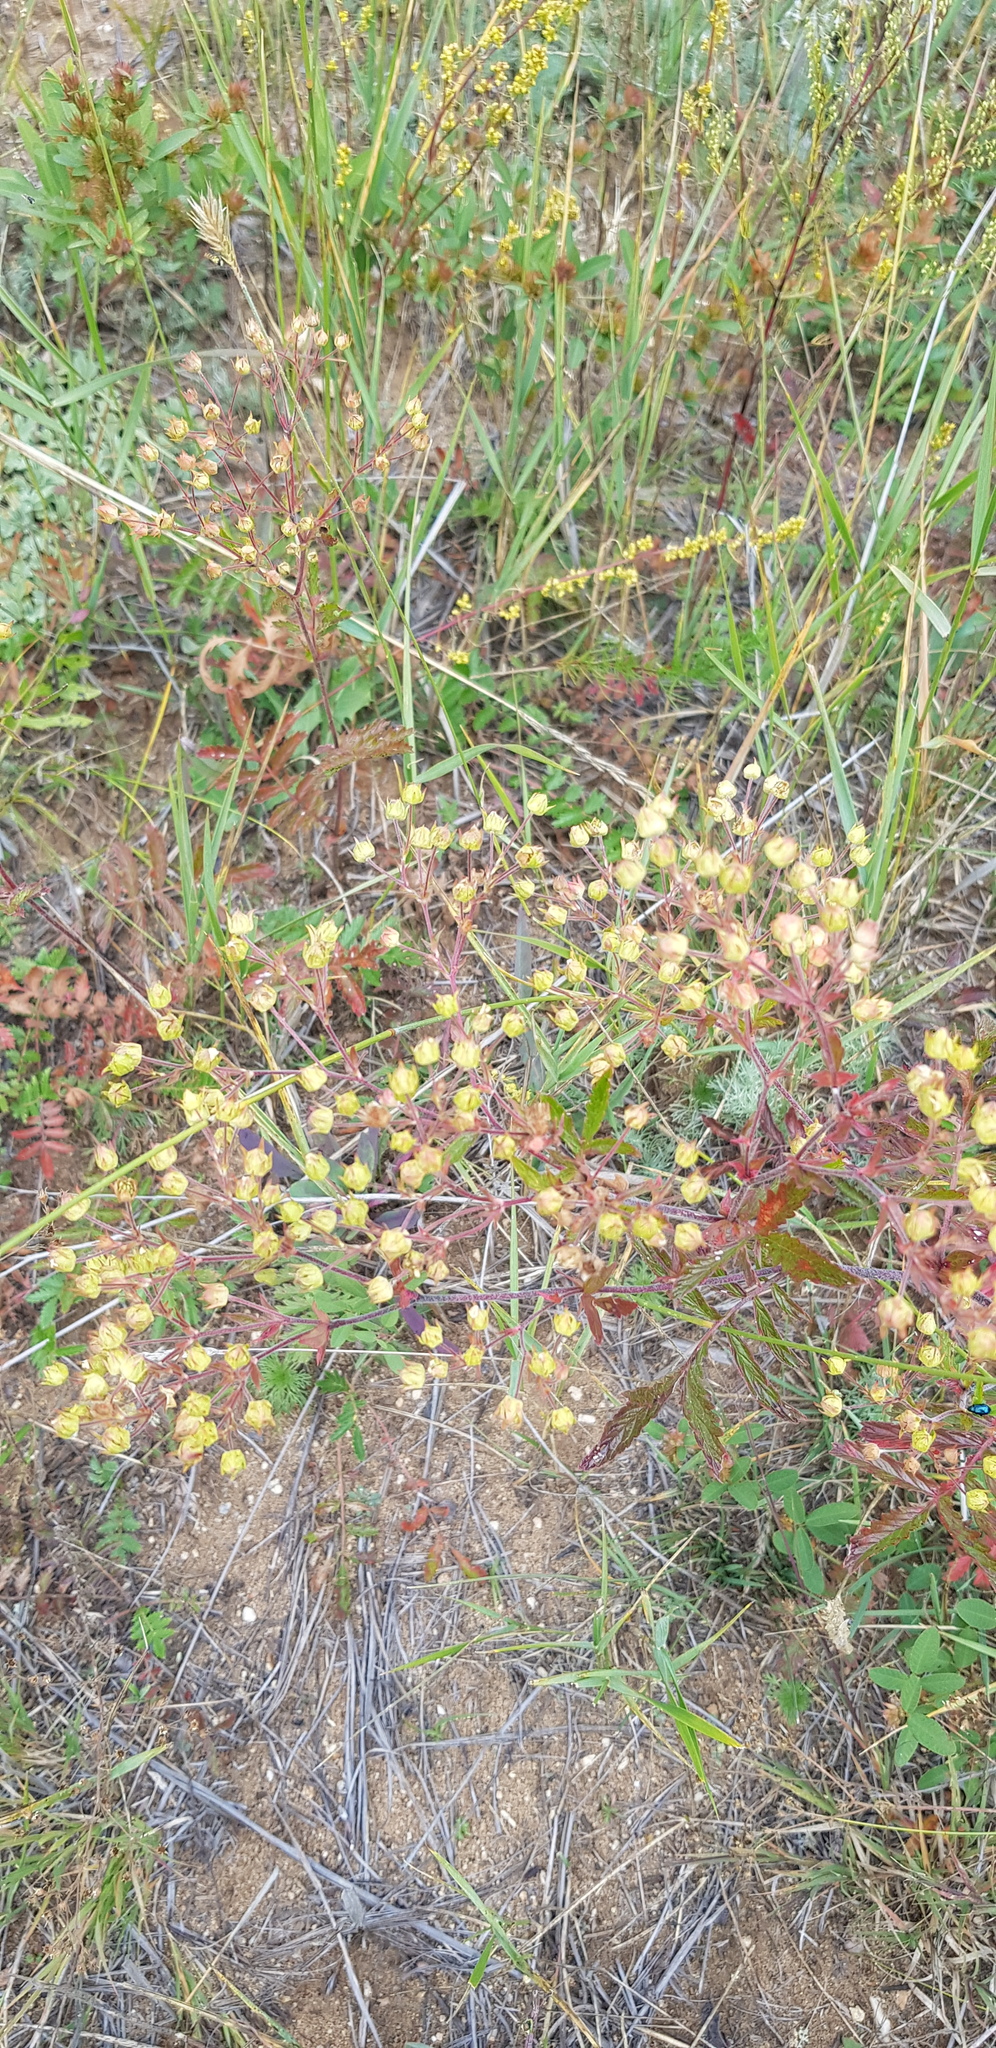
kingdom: Plantae
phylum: Tracheophyta
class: Magnoliopsida
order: Rosales
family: Rosaceae
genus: Potentilla
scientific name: Potentilla tanacetifolia
